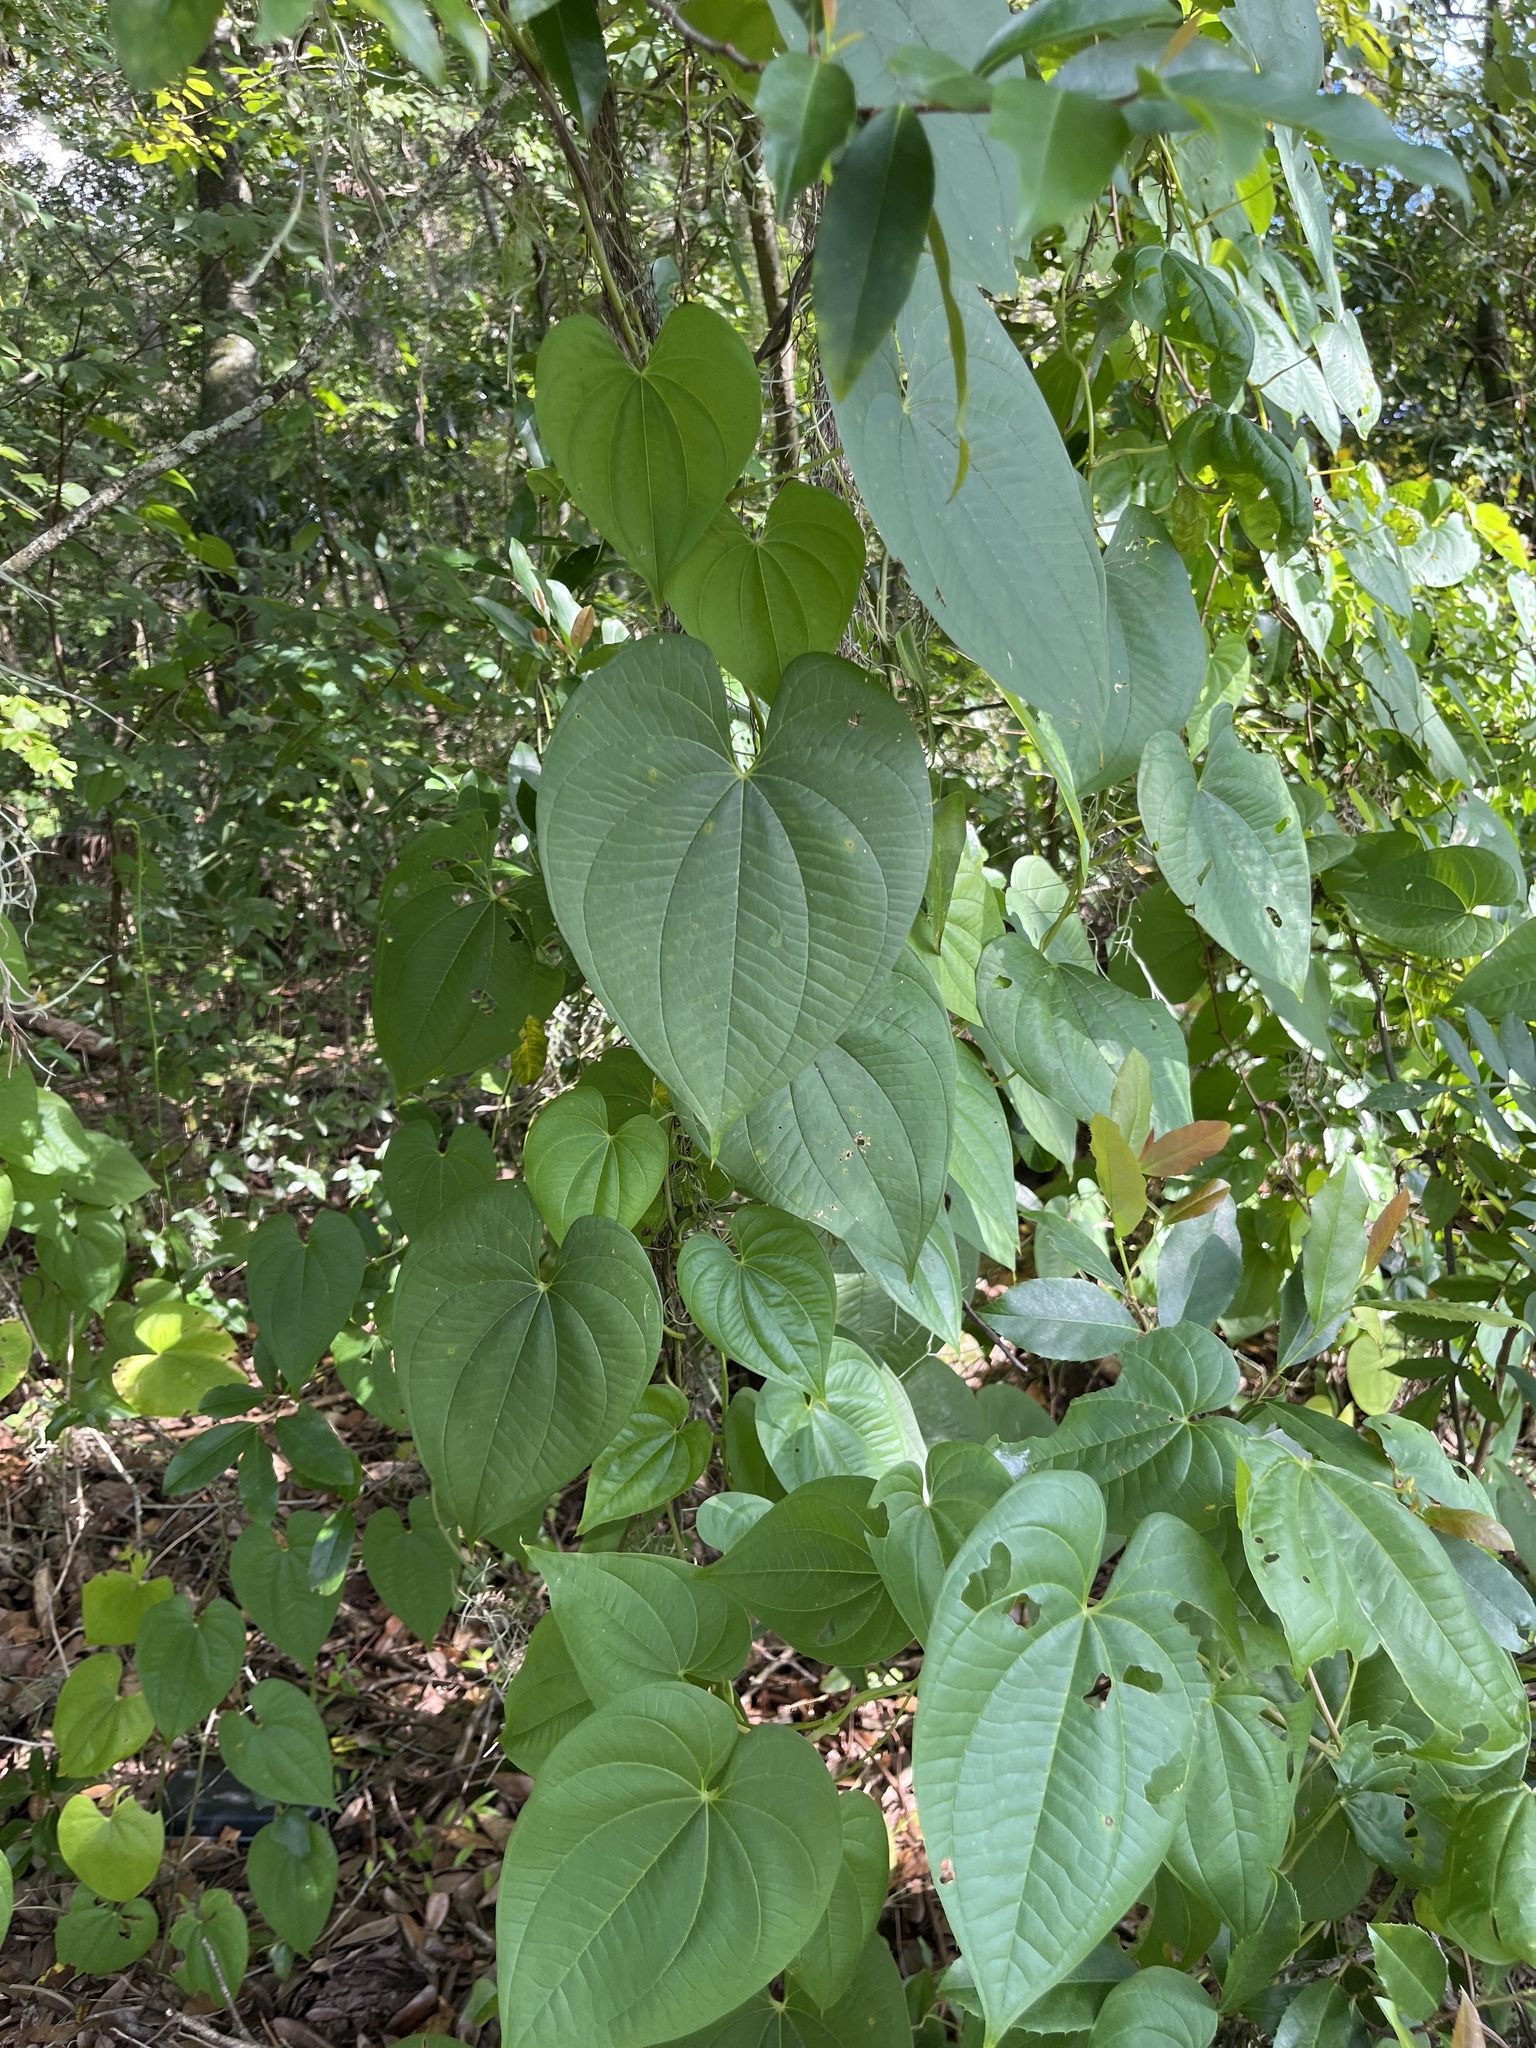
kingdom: Plantae
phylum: Tracheophyta
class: Liliopsida
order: Dioscoreales
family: Dioscoreaceae
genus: Dioscorea
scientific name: Dioscorea bulbifera
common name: Air yam
